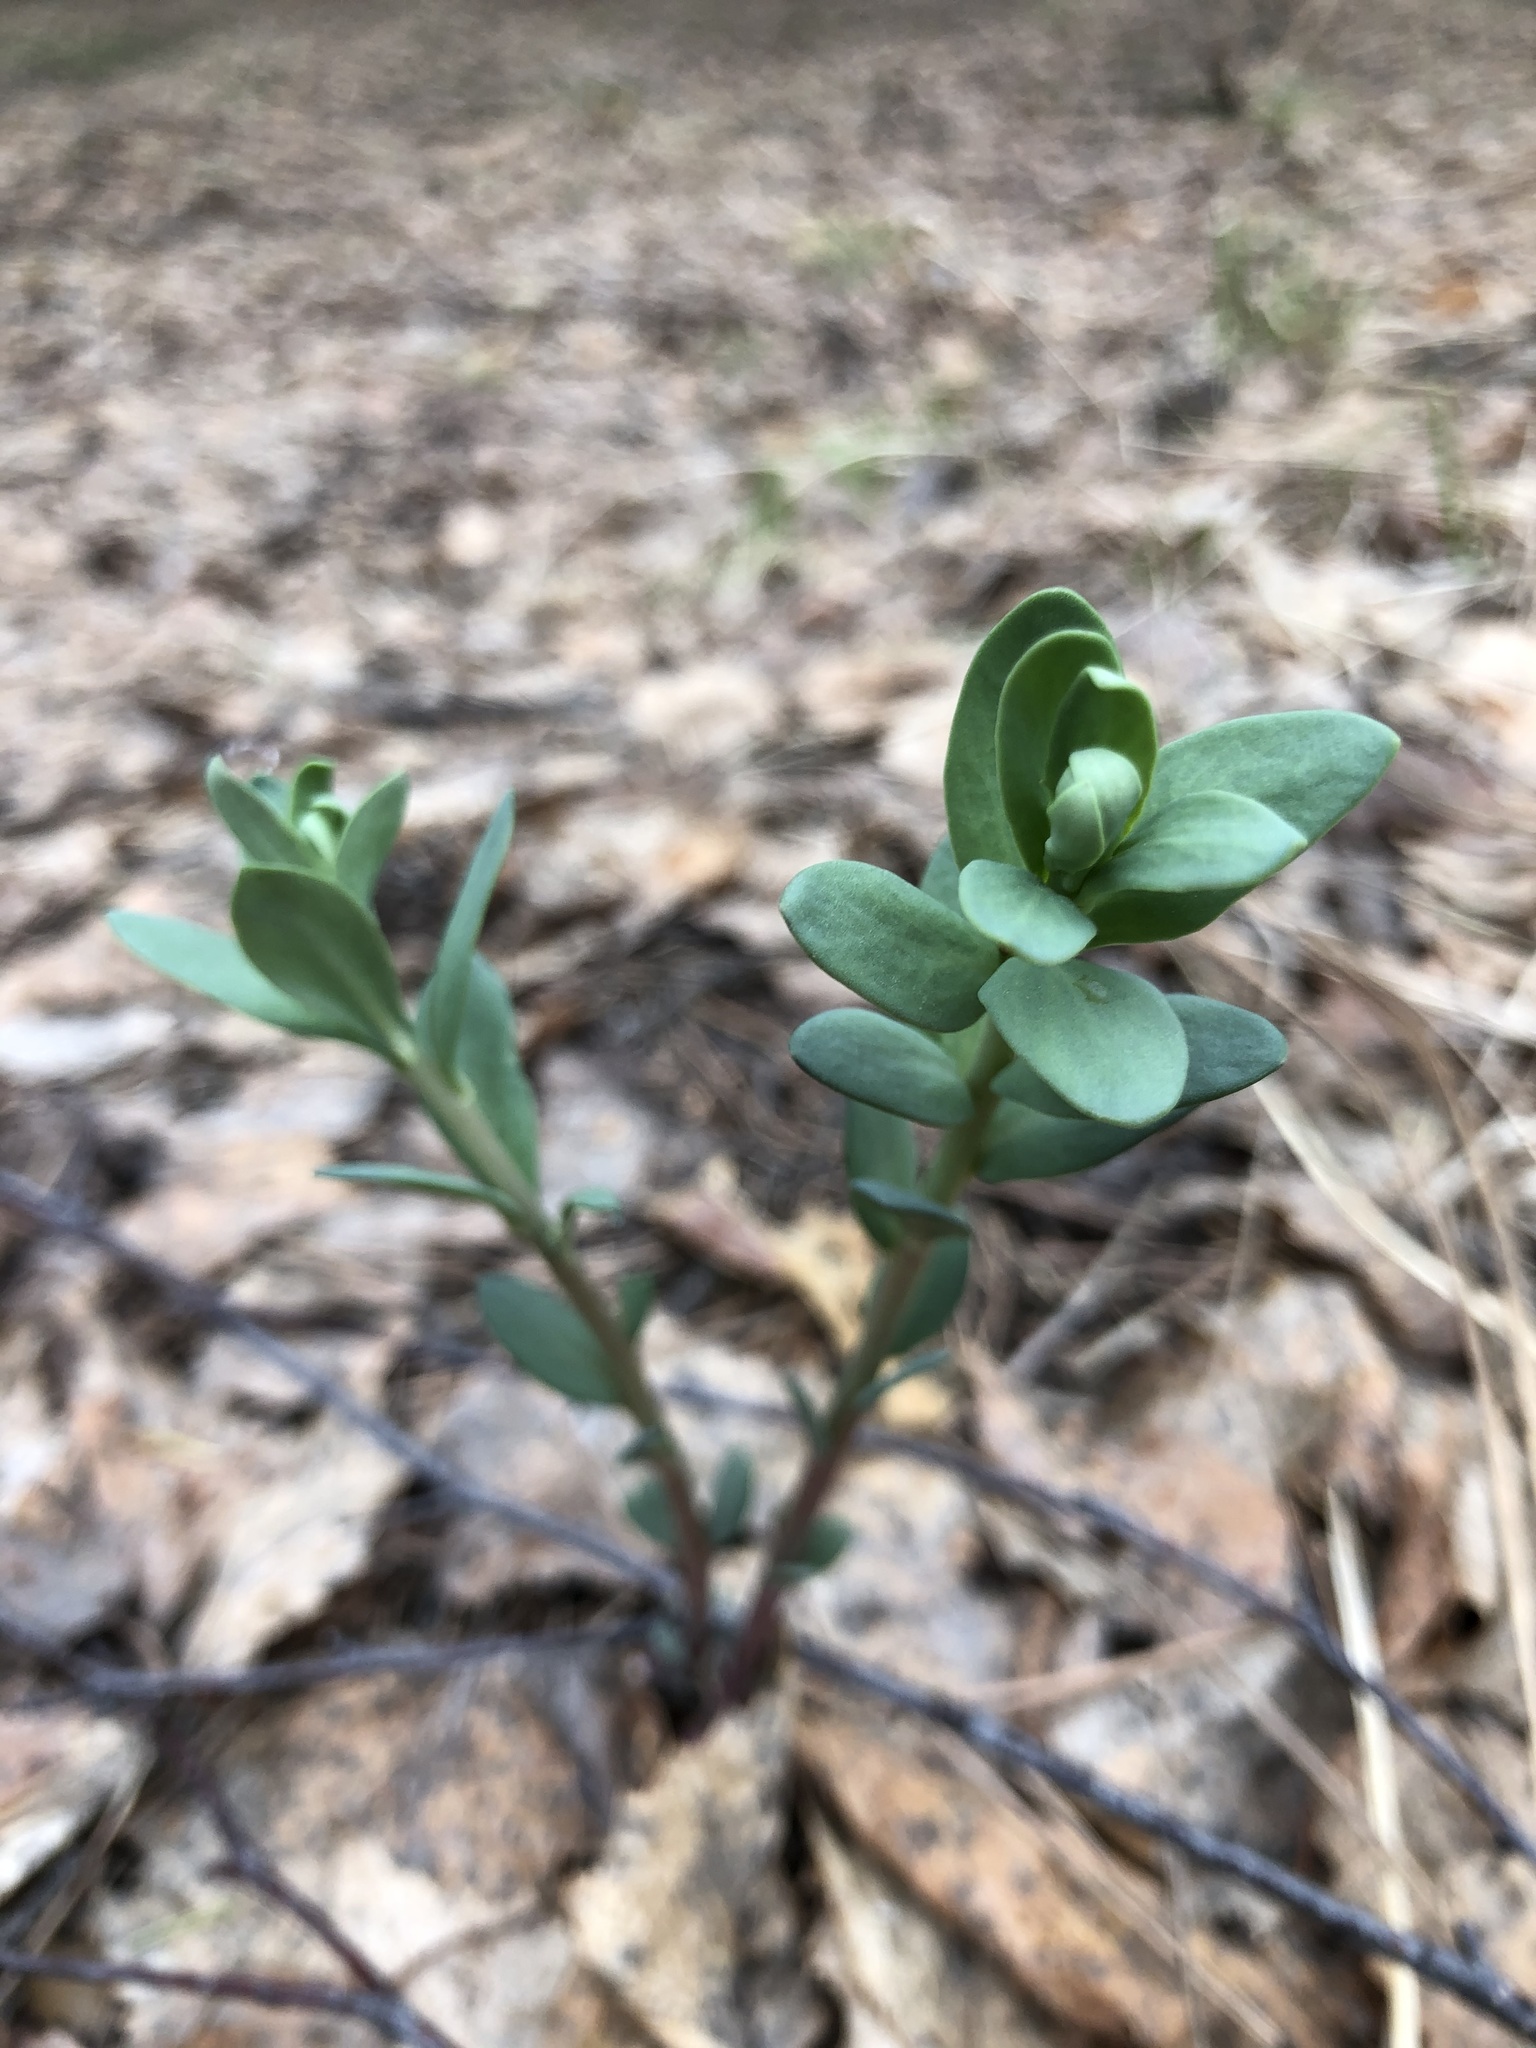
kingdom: Plantae
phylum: Tracheophyta
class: Magnoliopsida
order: Saxifragales
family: Crassulaceae
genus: Hylotelephium
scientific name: Hylotelephium telephium
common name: Live-forever
